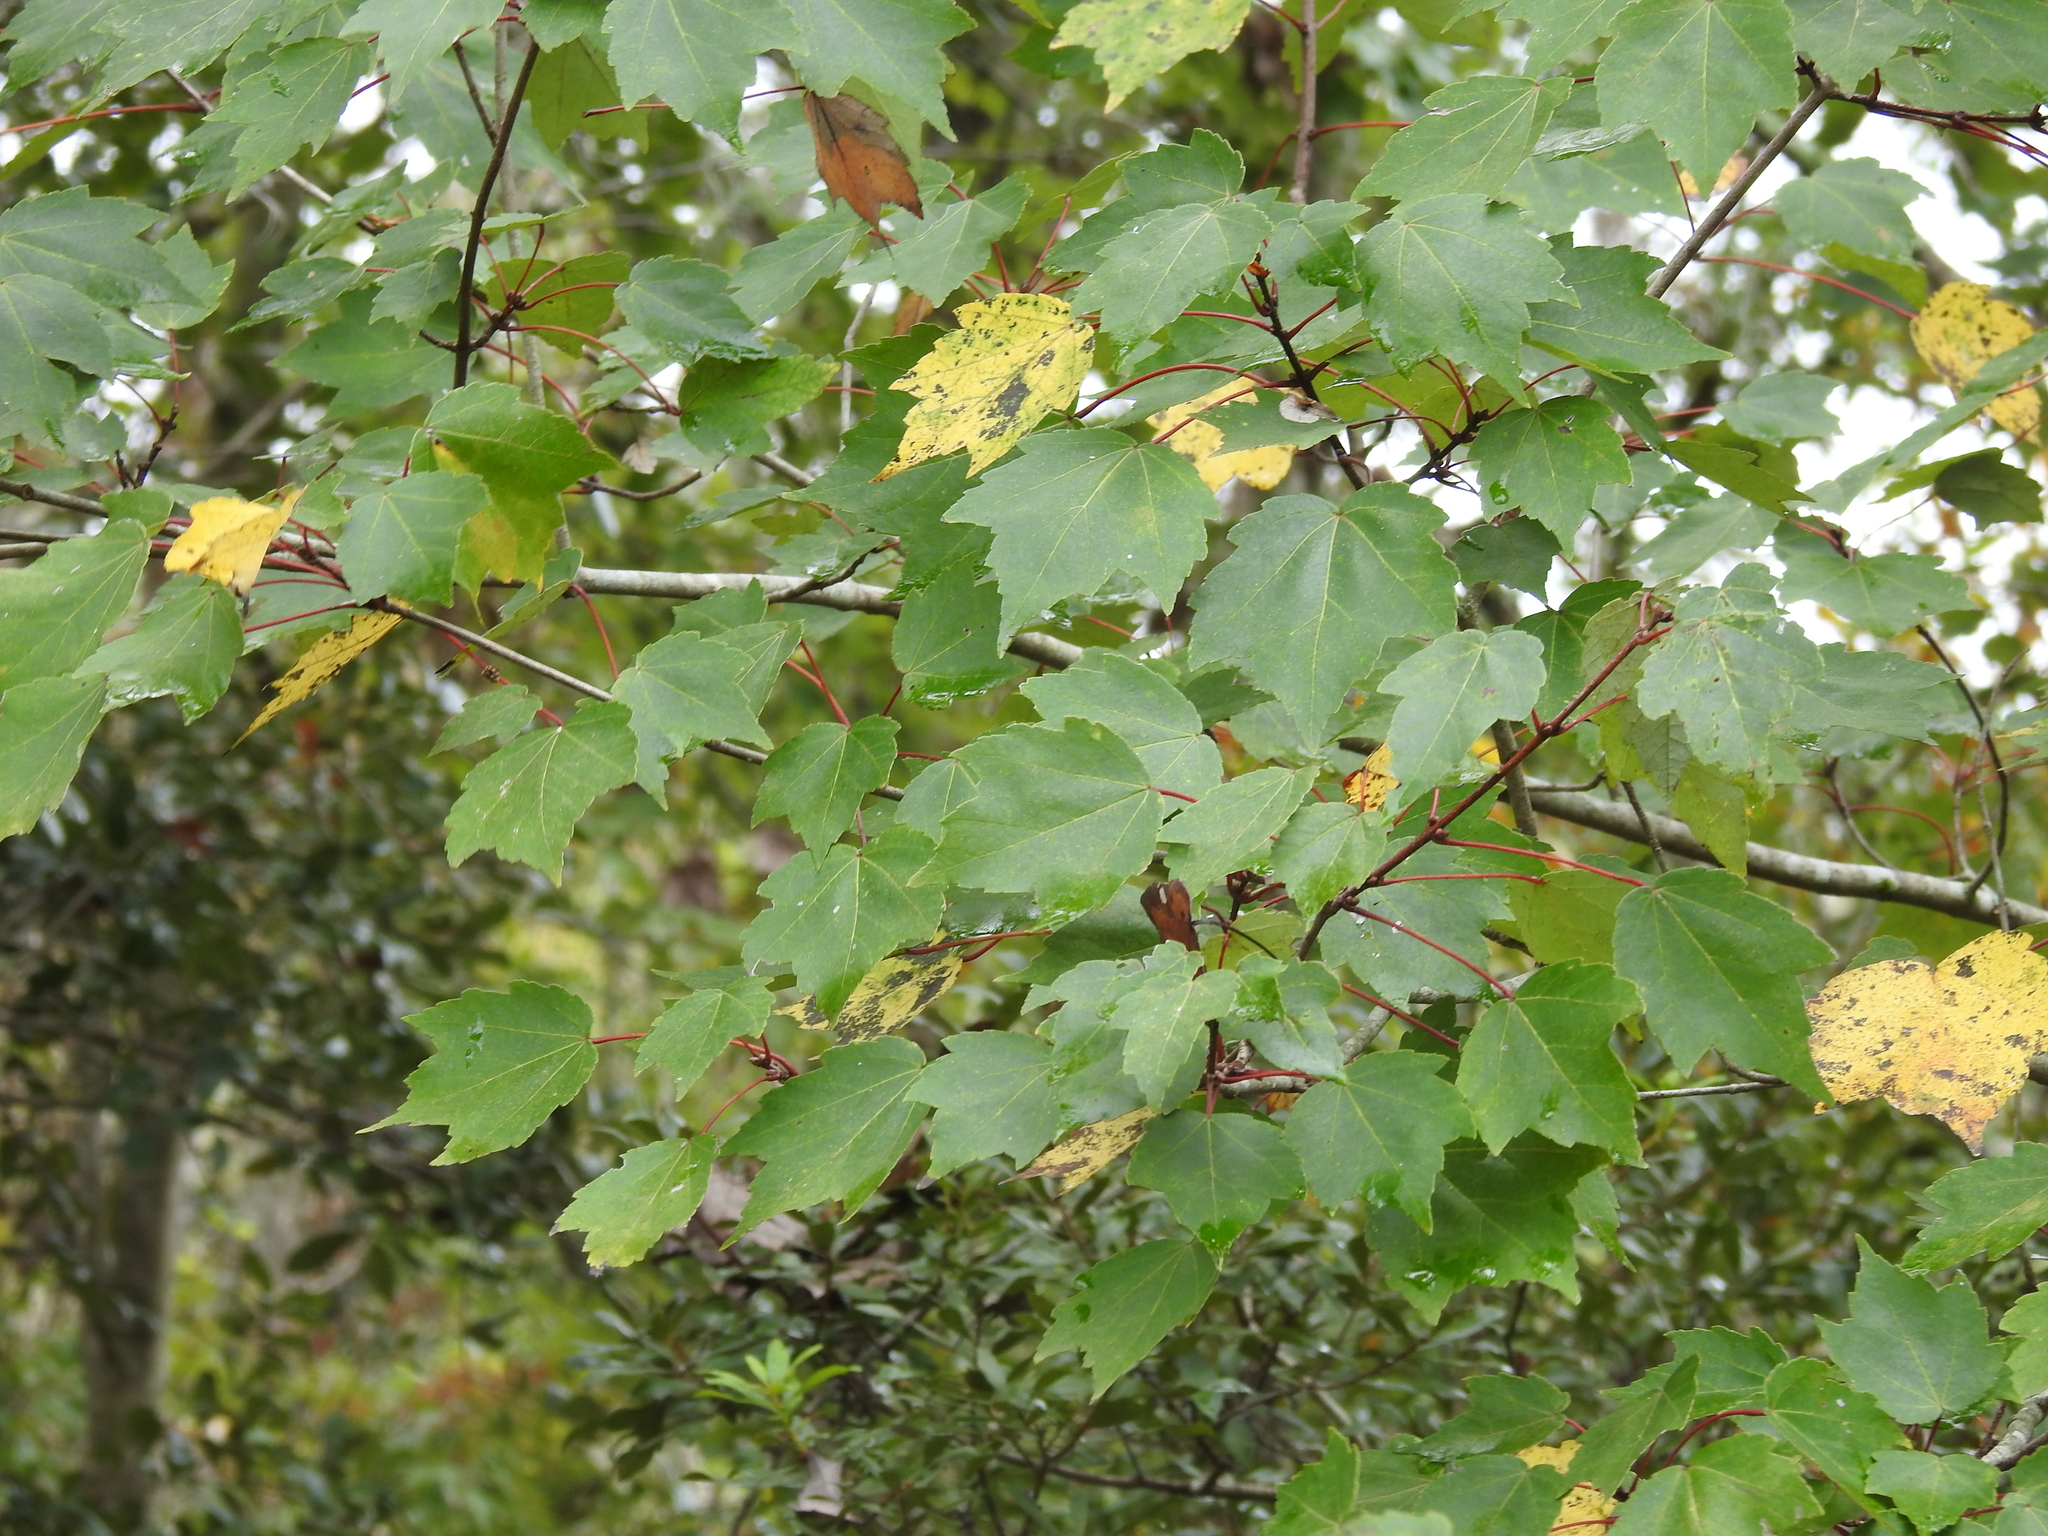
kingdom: Plantae
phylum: Tracheophyta
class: Magnoliopsida
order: Sapindales
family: Sapindaceae
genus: Acer
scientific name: Acer rubrum
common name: Red maple
